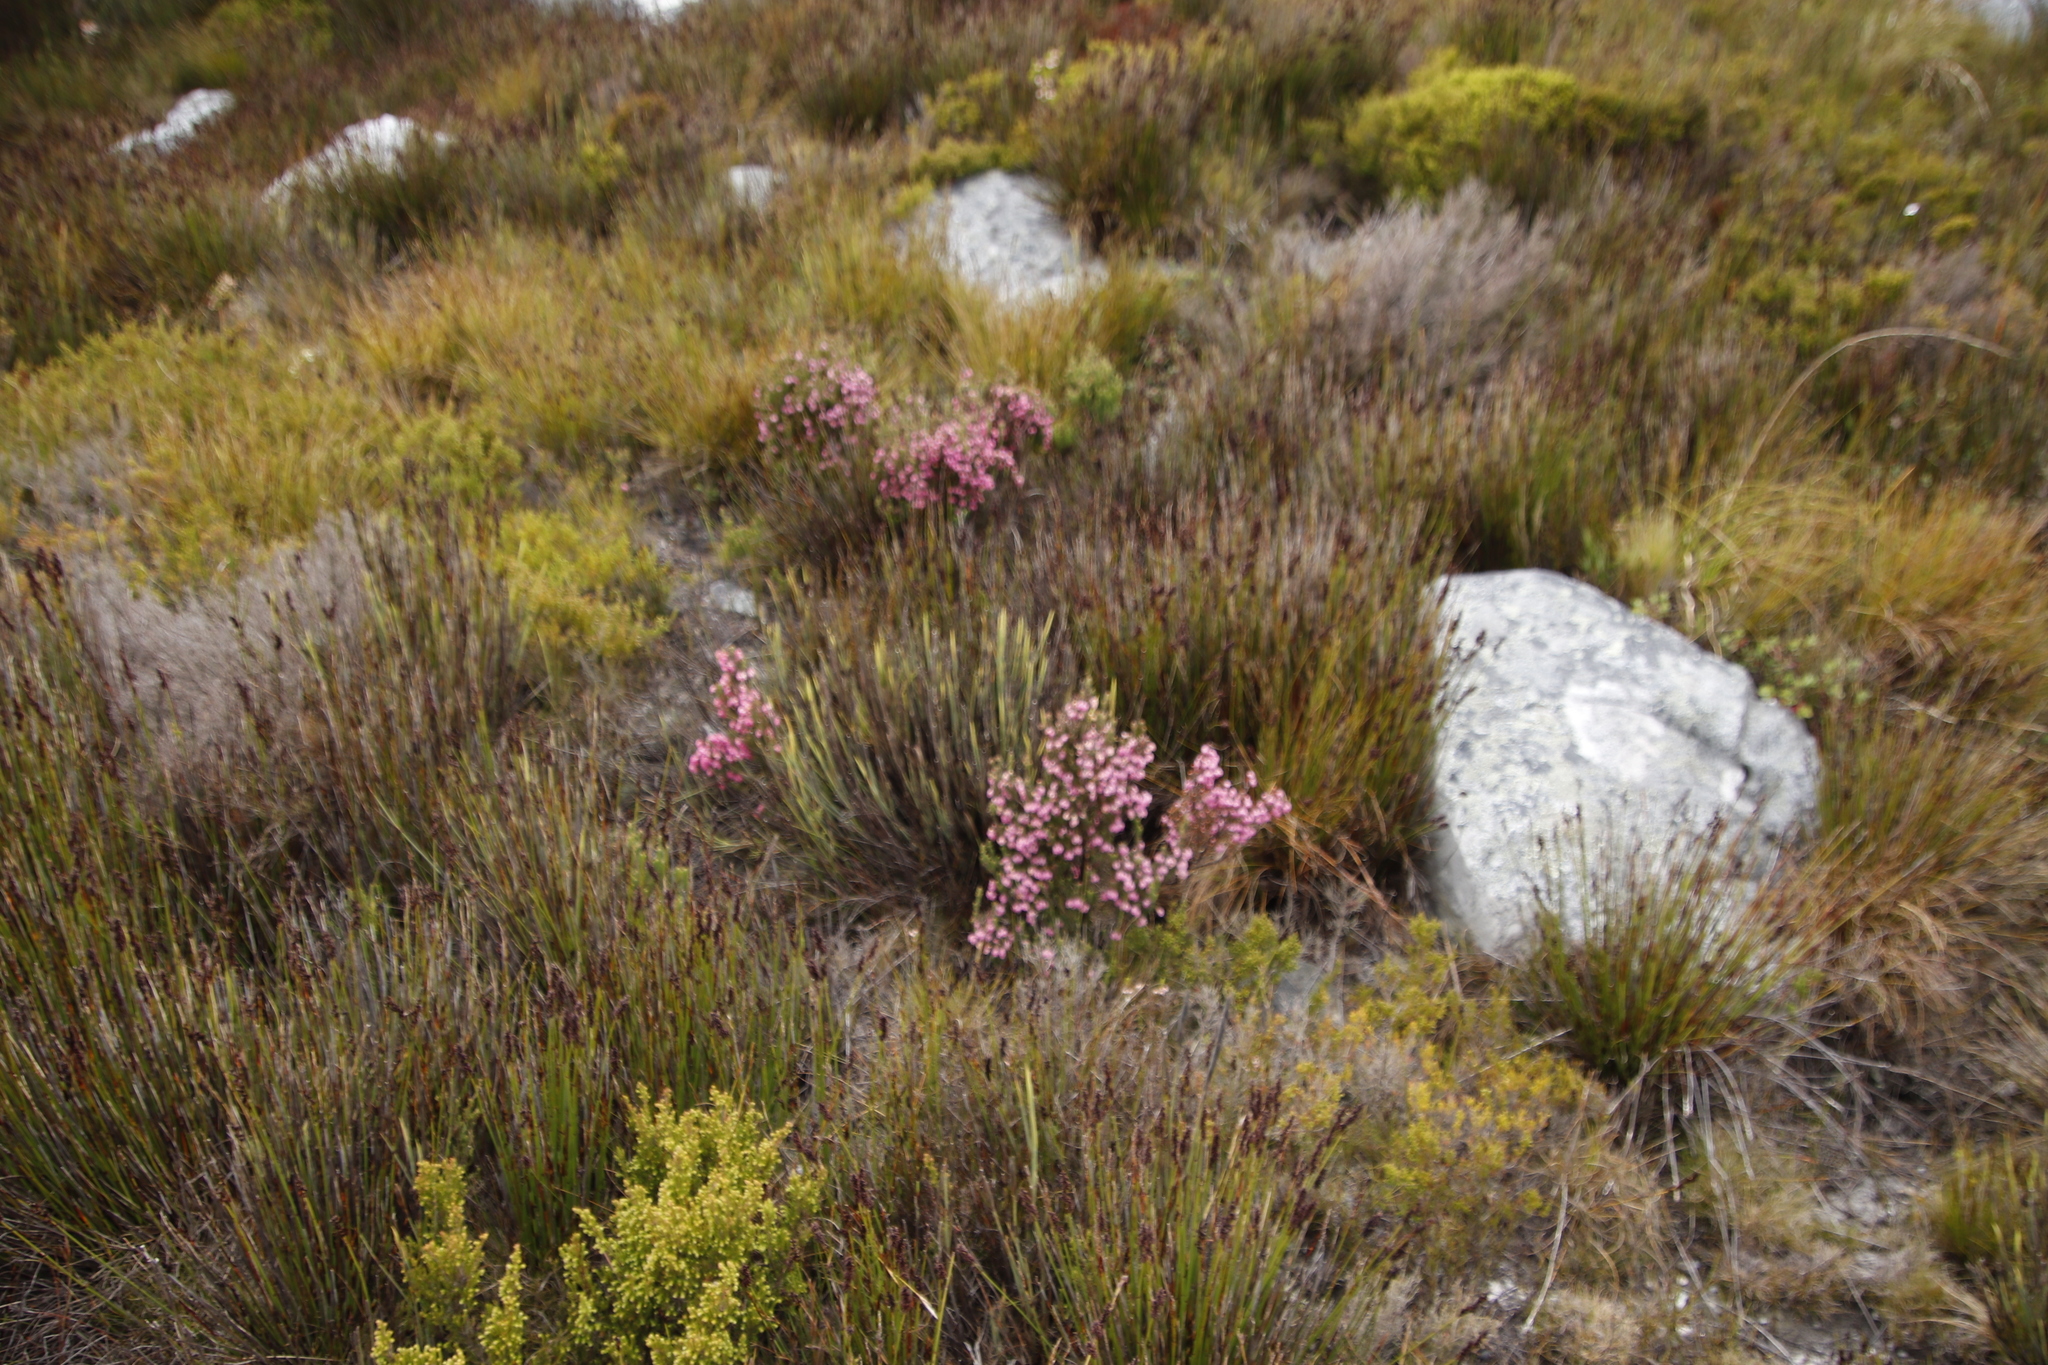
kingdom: Plantae
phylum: Tracheophyta
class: Magnoliopsida
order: Ericales
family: Ericaceae
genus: Erica
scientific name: Erica tegulifolia
